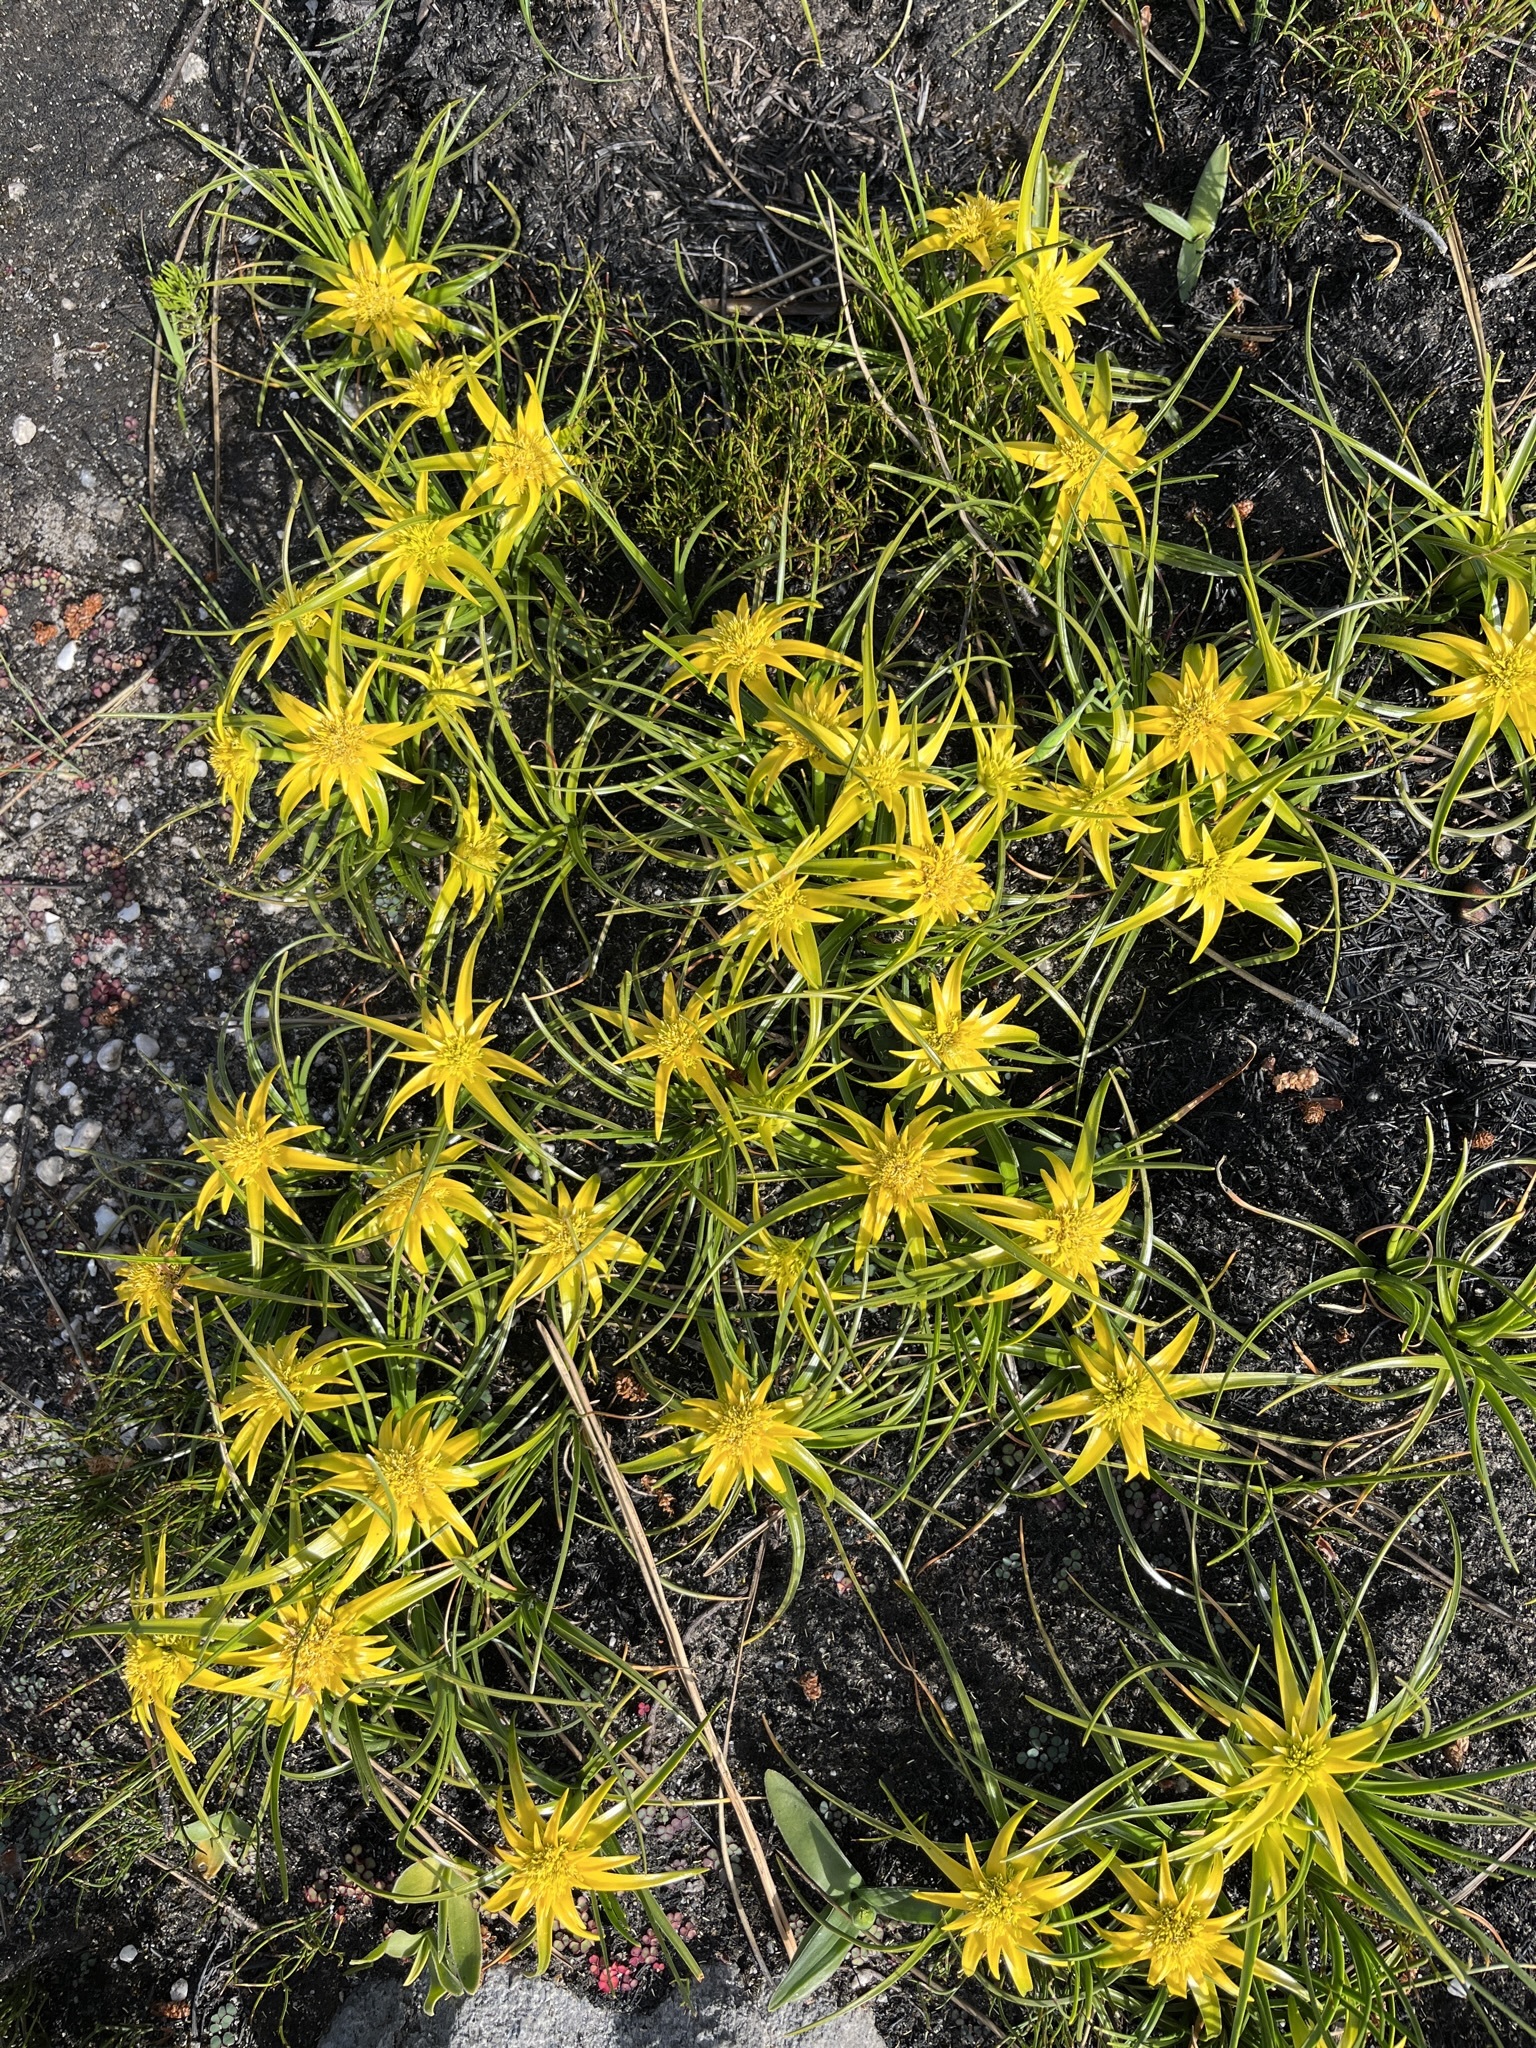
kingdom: Plantae
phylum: Tracheophyta
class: Liliopsida
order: Poales
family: Cyperaceae
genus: Ficinia
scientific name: Ficinia radiata
